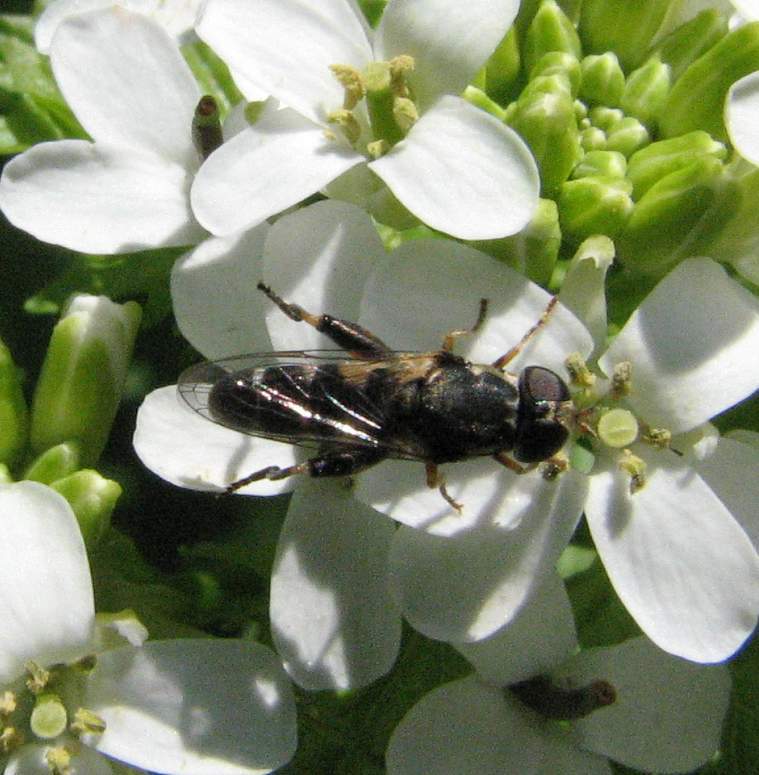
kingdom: Animalia
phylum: Arthropoda
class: Insecta
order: Diptera
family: Syrphidae
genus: Syritta
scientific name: Syritta pipiens
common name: Hover fly
